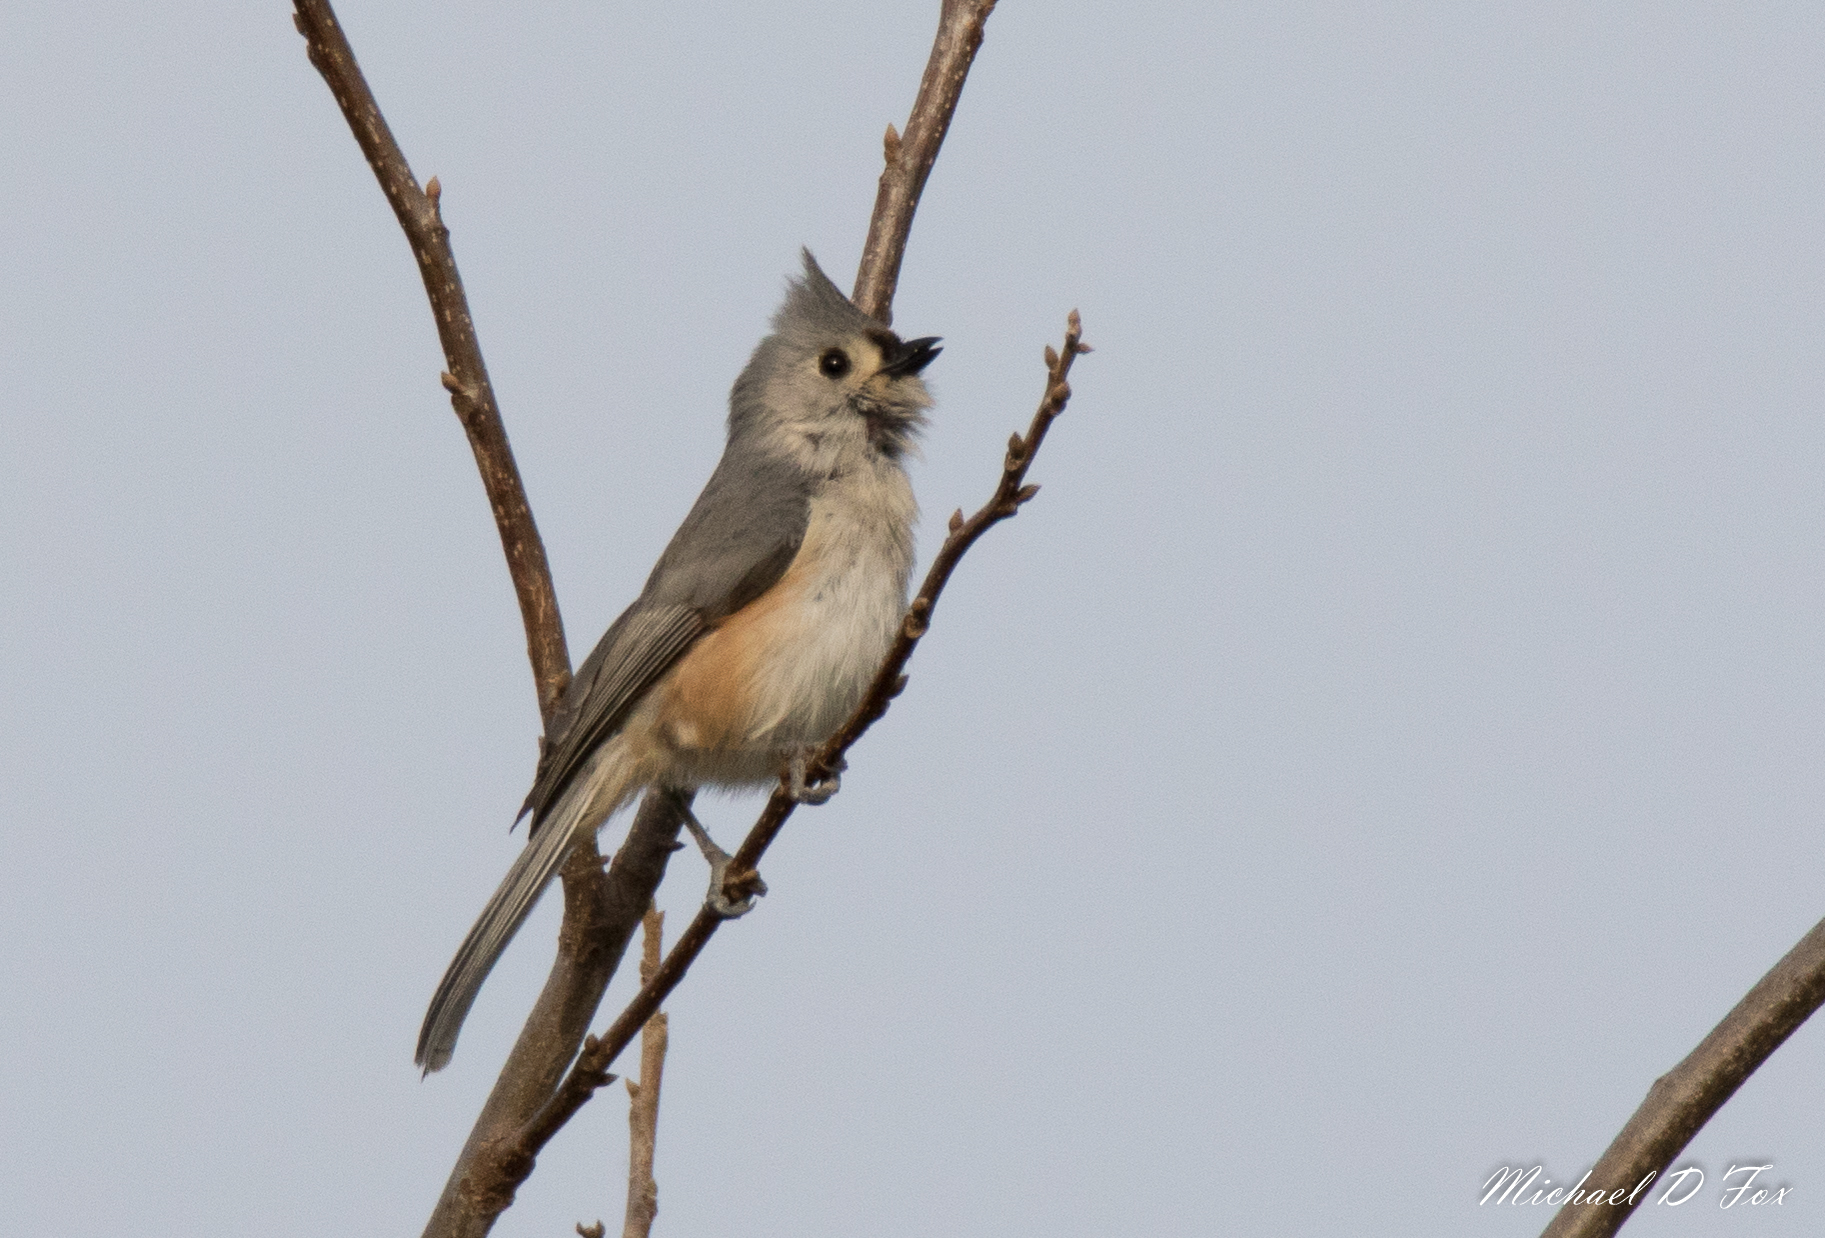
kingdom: Animalia
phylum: Chordata
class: Aves
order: Passeriformes
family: Paridae
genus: Baeolophus
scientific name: Baeolophus bicolor
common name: Tufted titmouse
